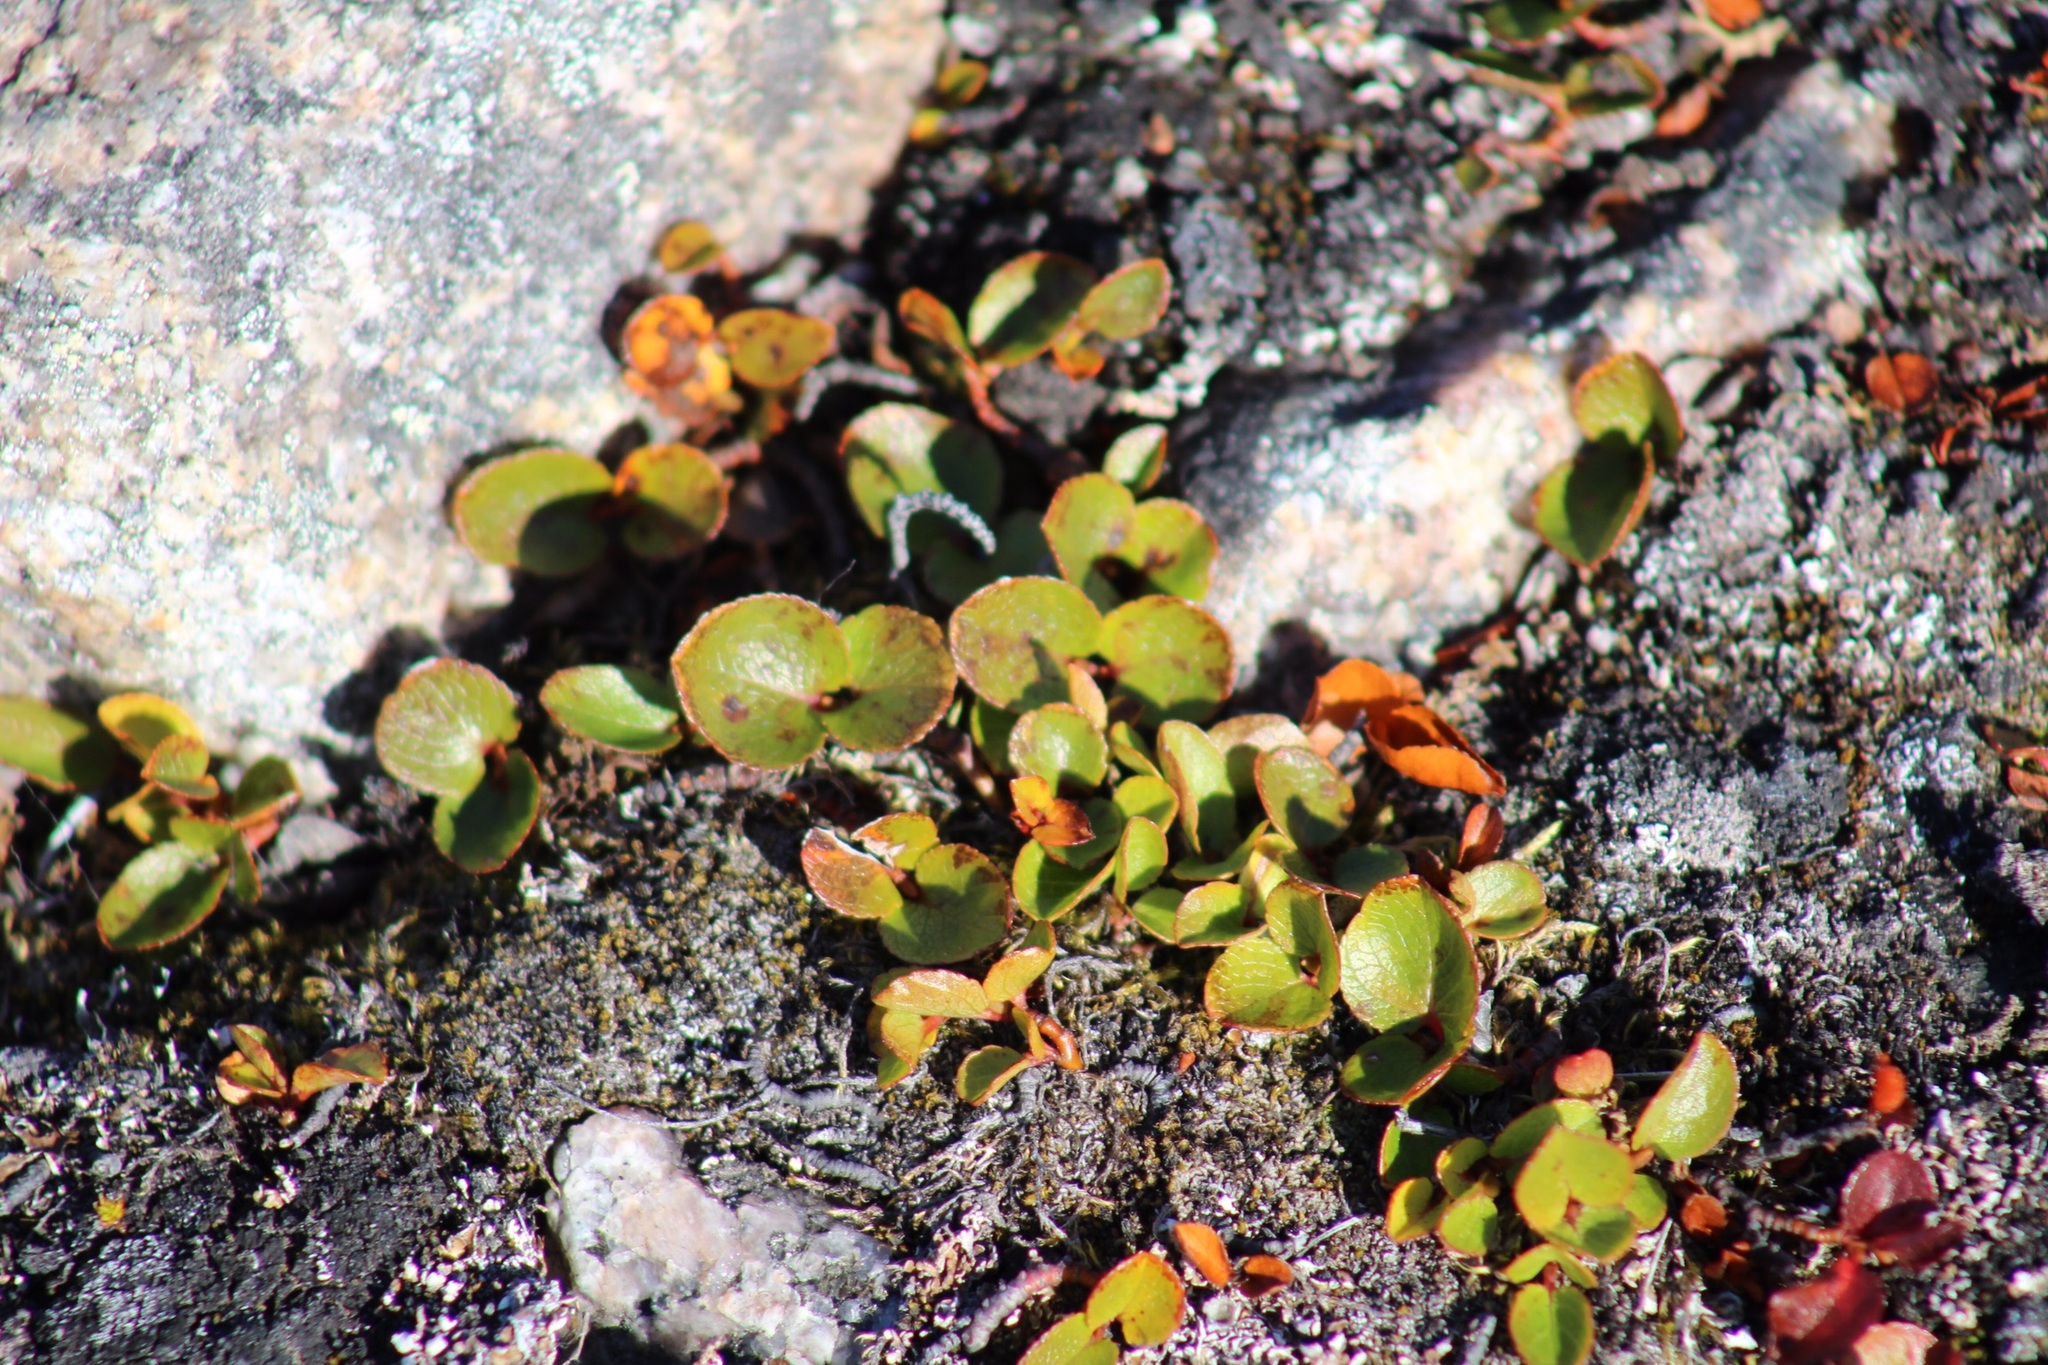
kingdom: Plantae
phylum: Tracheophyta
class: Magnoliopsida
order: Malpighiales
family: Salicaceae
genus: Salix
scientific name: Salix herbacea
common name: Dwarf willow
